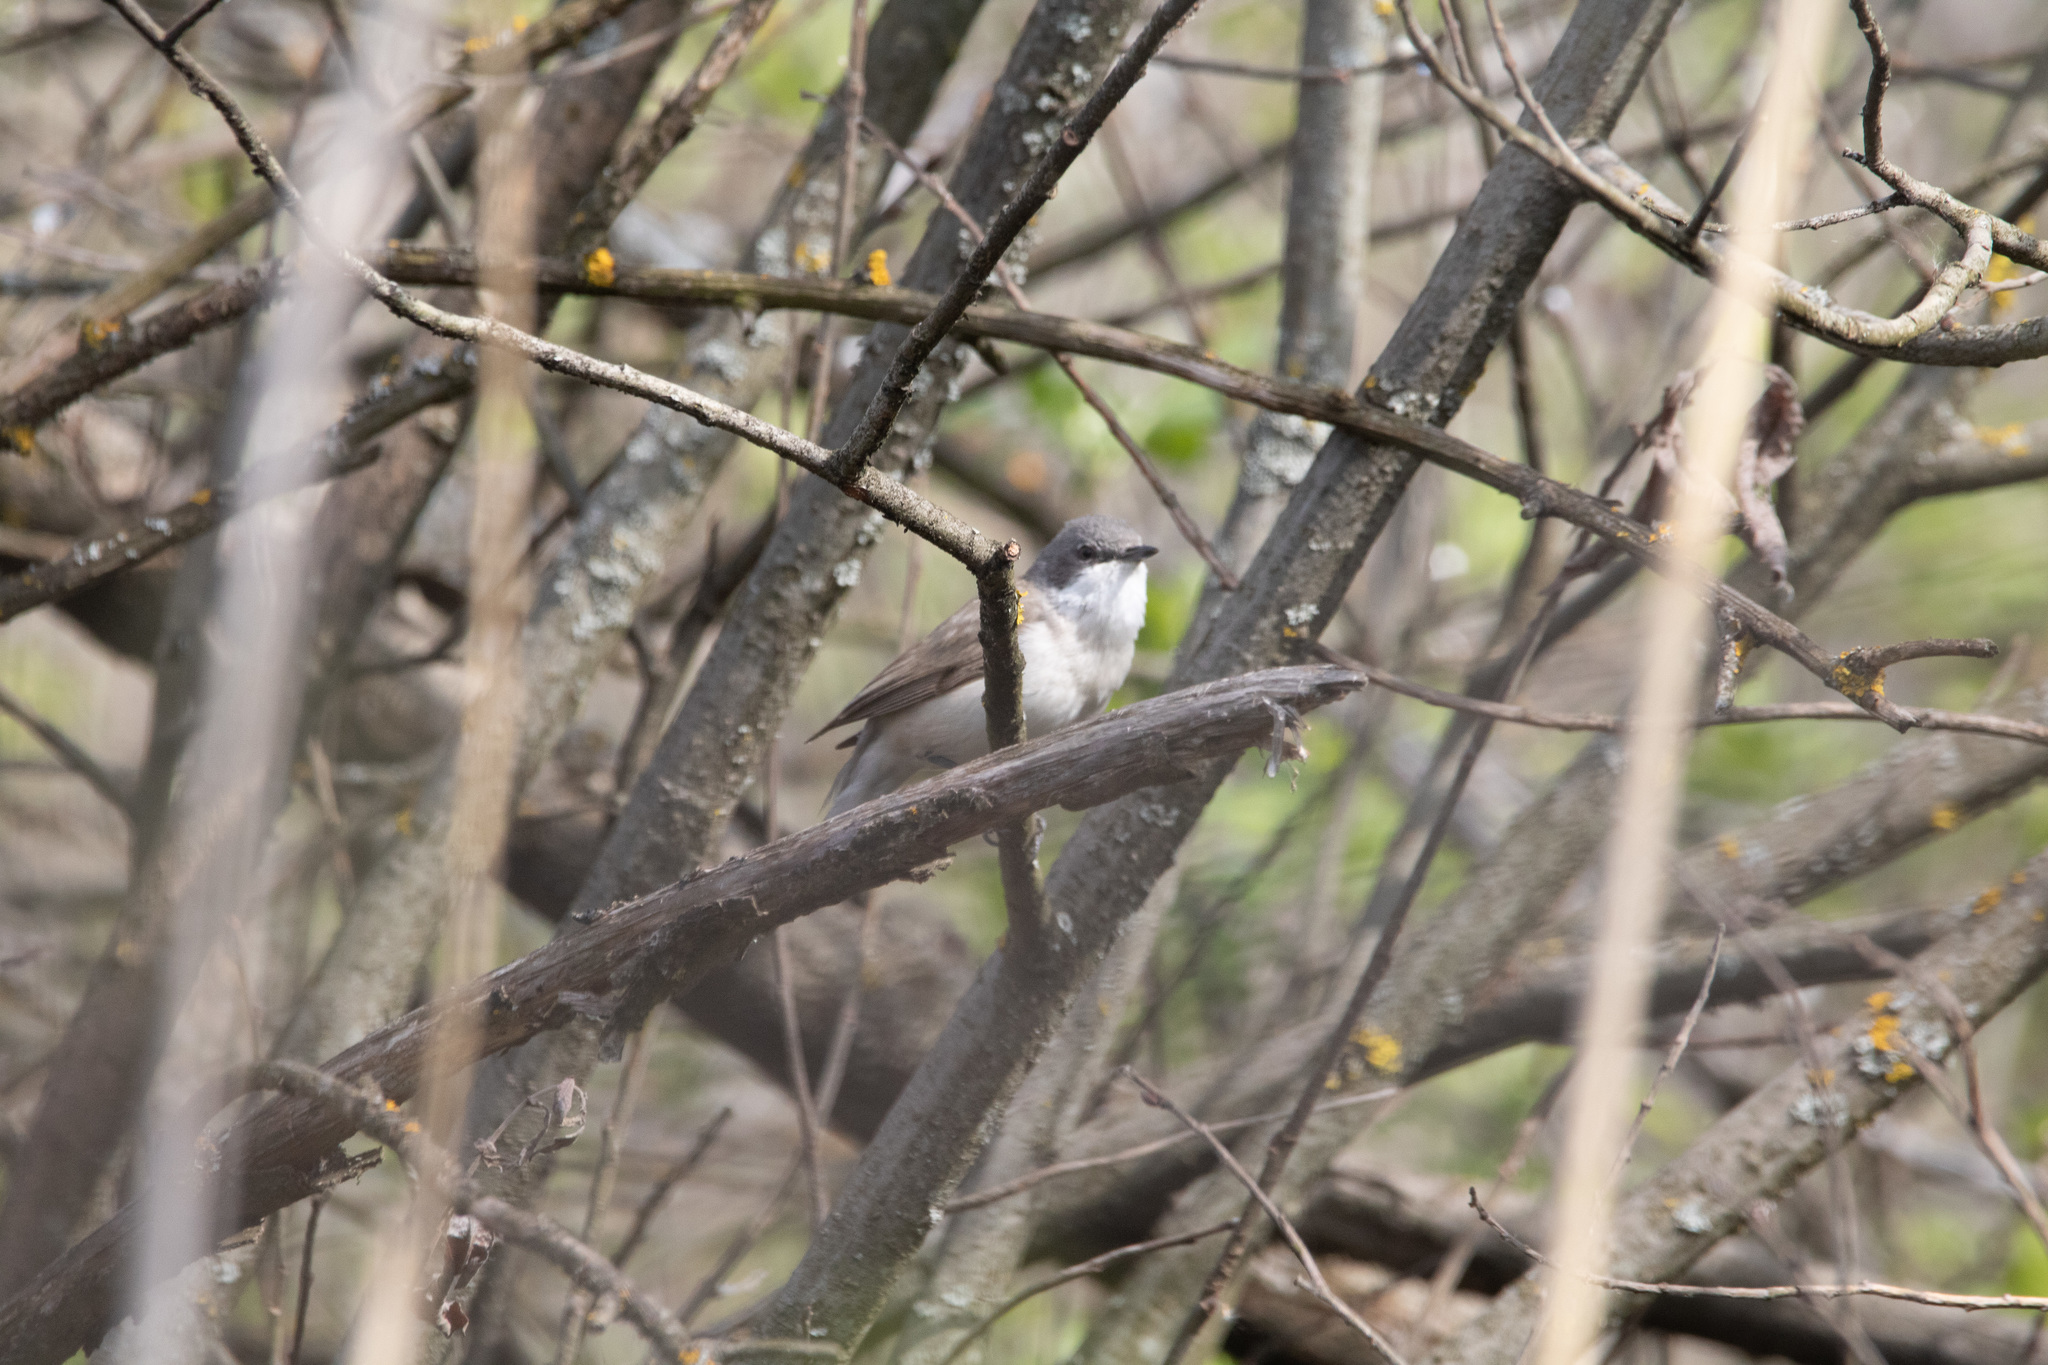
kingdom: Animalia
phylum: Chordata
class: Aves
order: Passeriformes
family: Sylviidae
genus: Sylvia
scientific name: Sylvia curruca
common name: Lesser whitethroat
